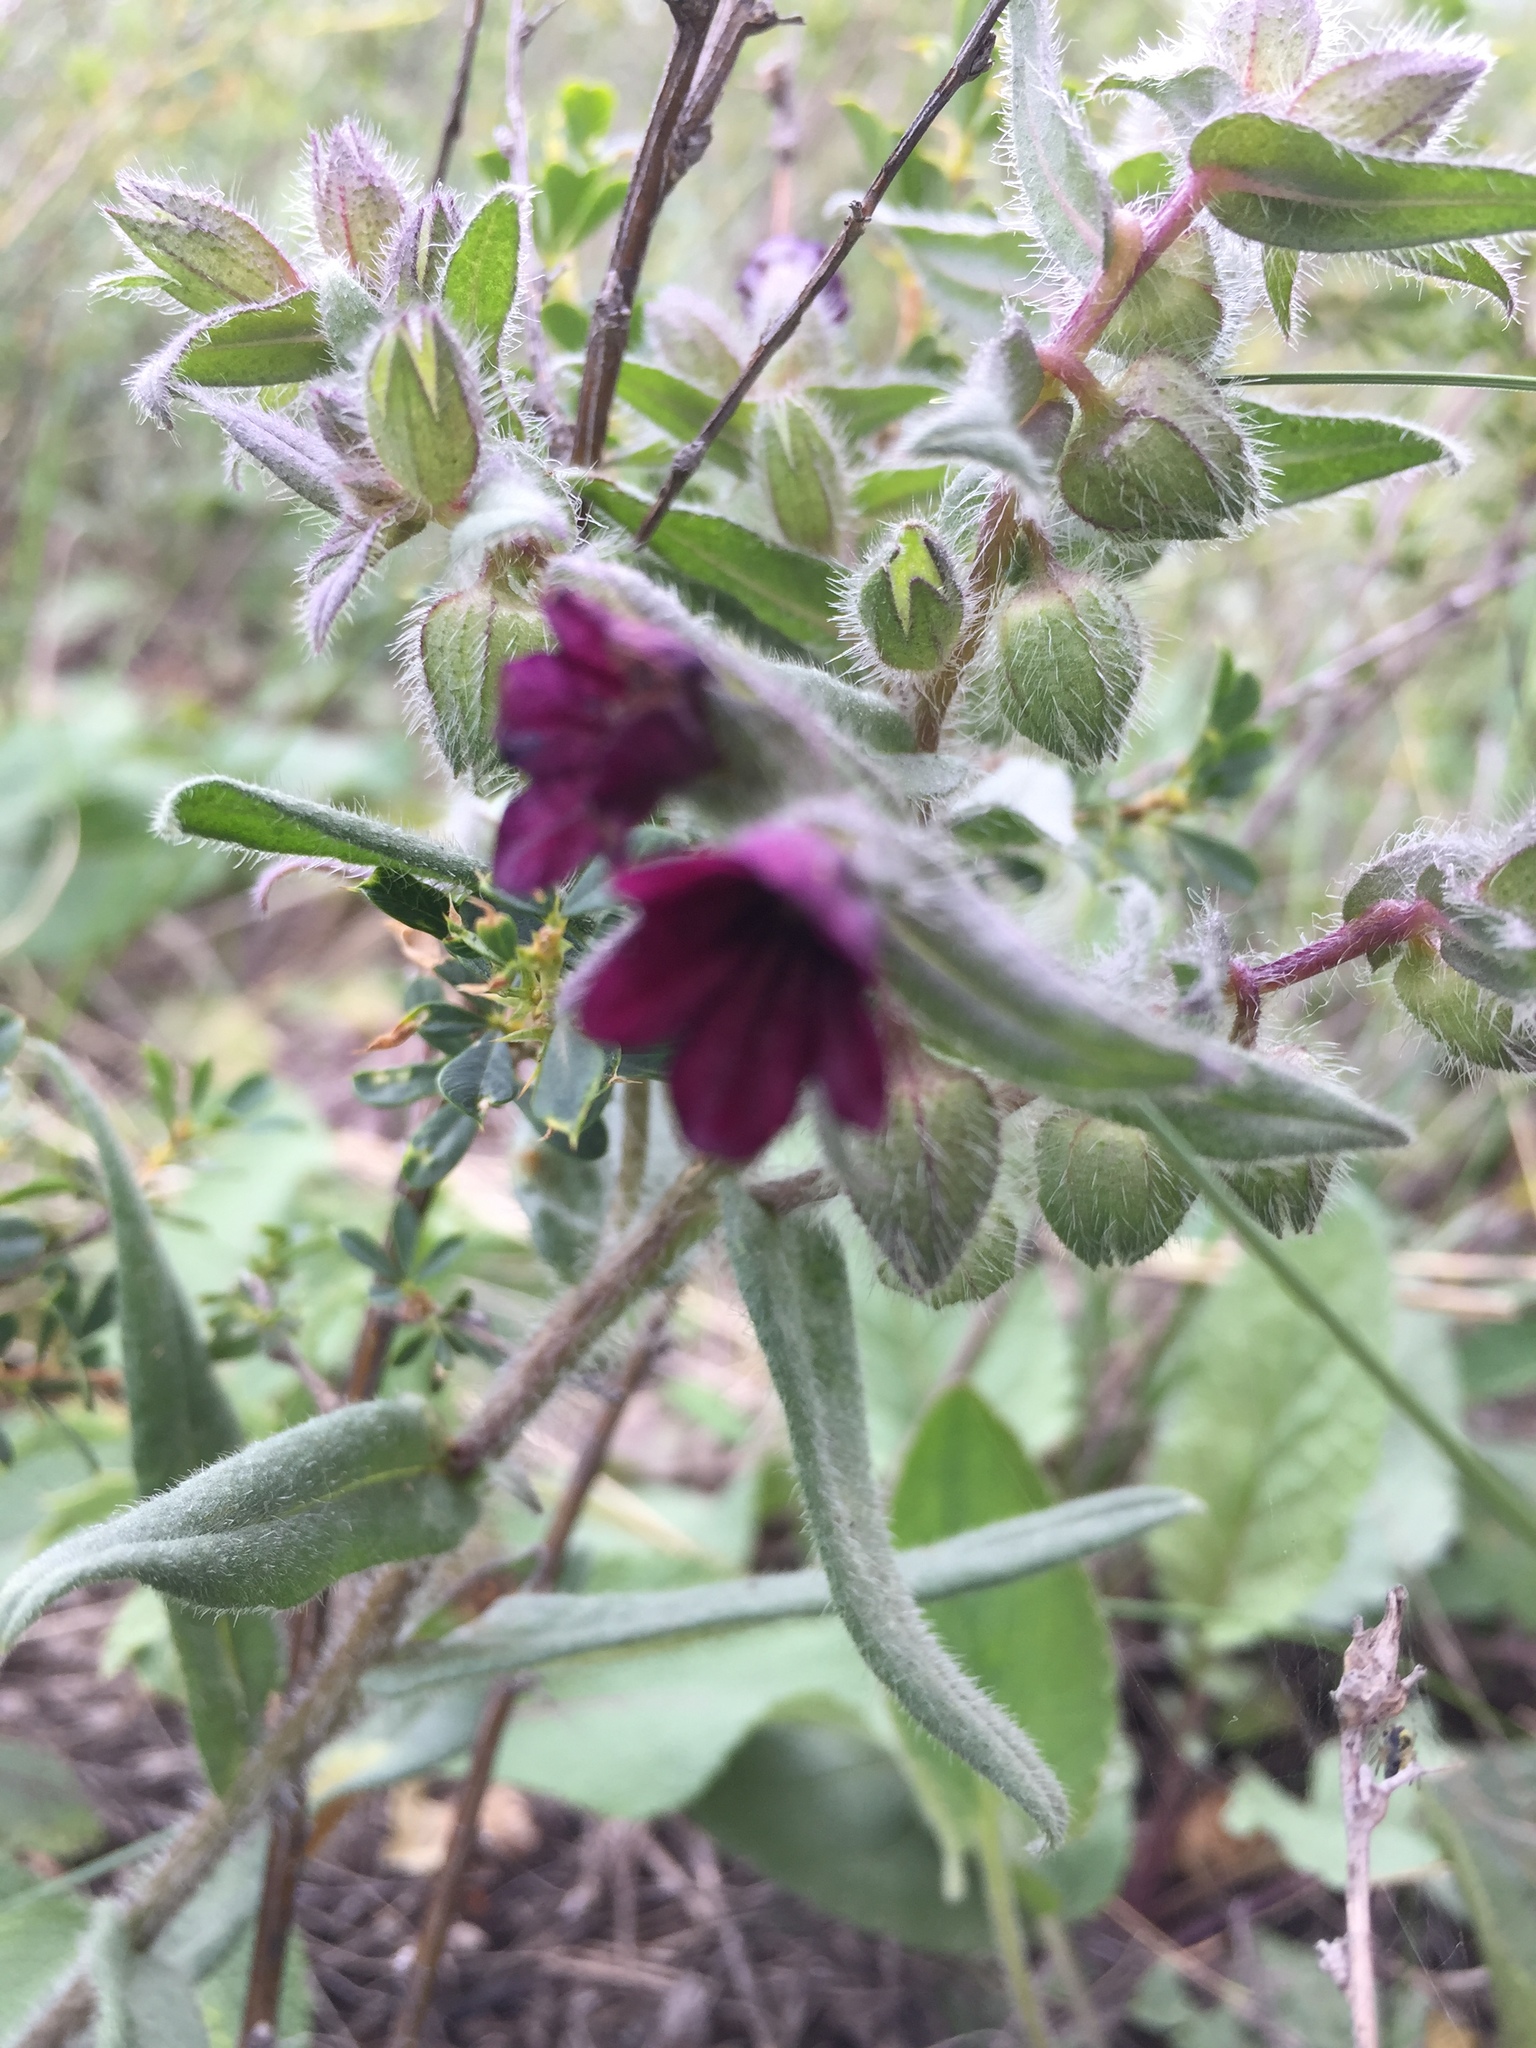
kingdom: Plantae
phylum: Tracheophyta
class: Magnoliopsida
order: Boraginales
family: Boraginaceae
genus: Nonea
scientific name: Nonea pulla
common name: Brown nonea
